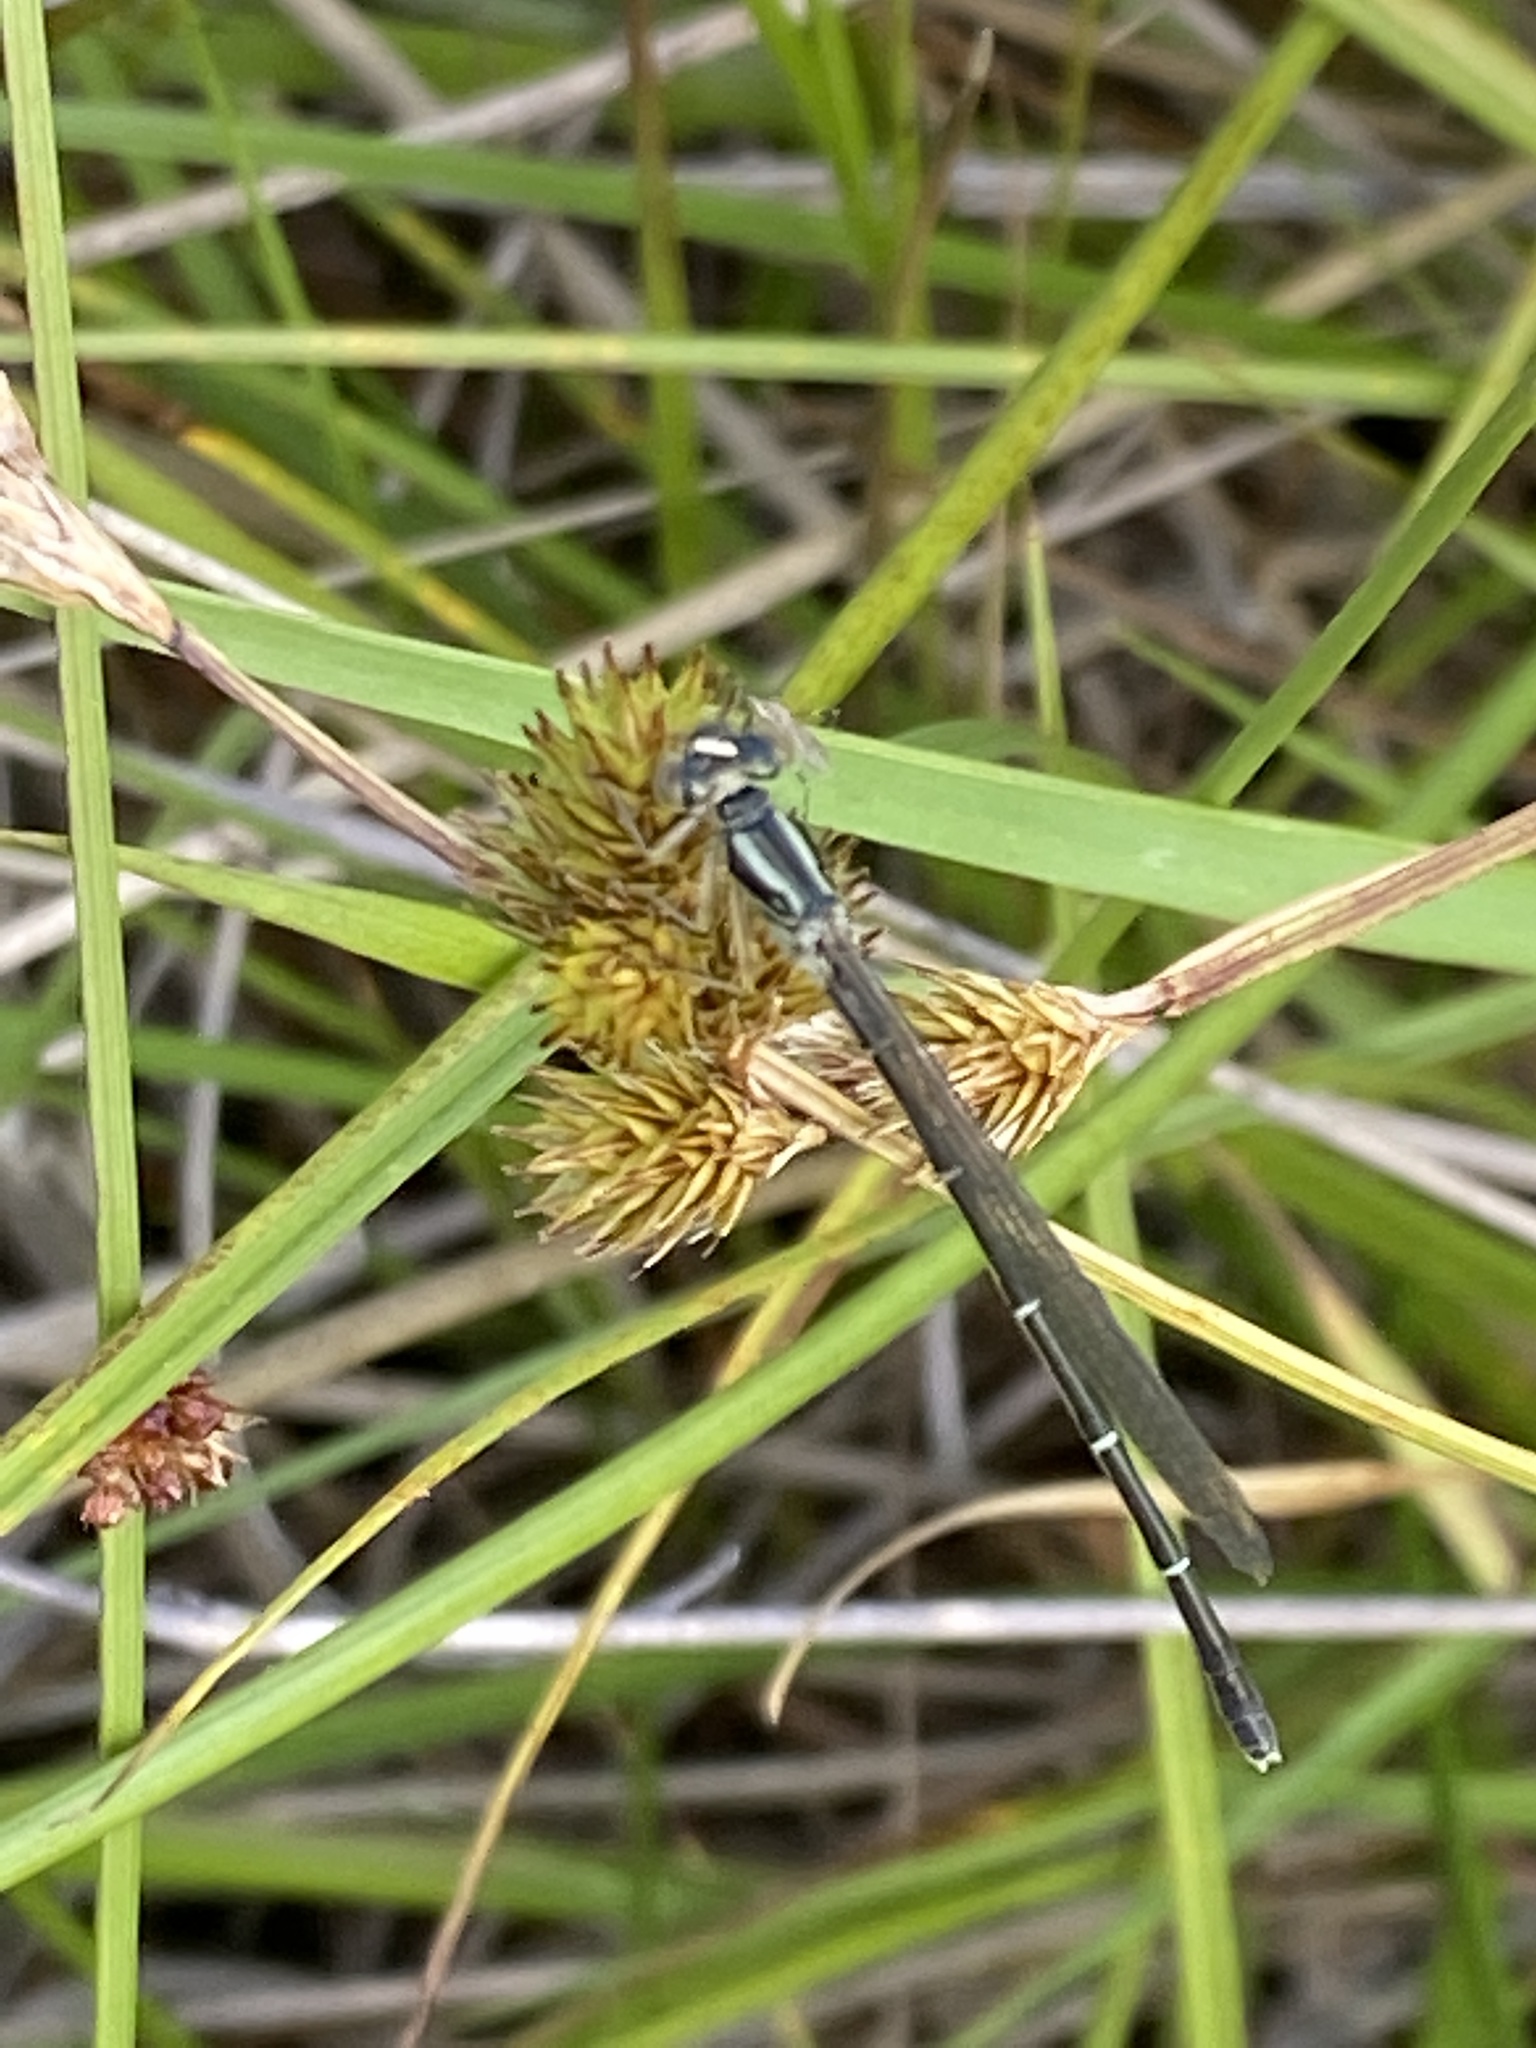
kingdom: Animalia
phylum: Arthropoda
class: Insecta
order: Odonata
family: Coenagrionidae
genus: Xanthocnemis
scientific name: Xanthocnemis zealandica
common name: Common redcoat damselfly
